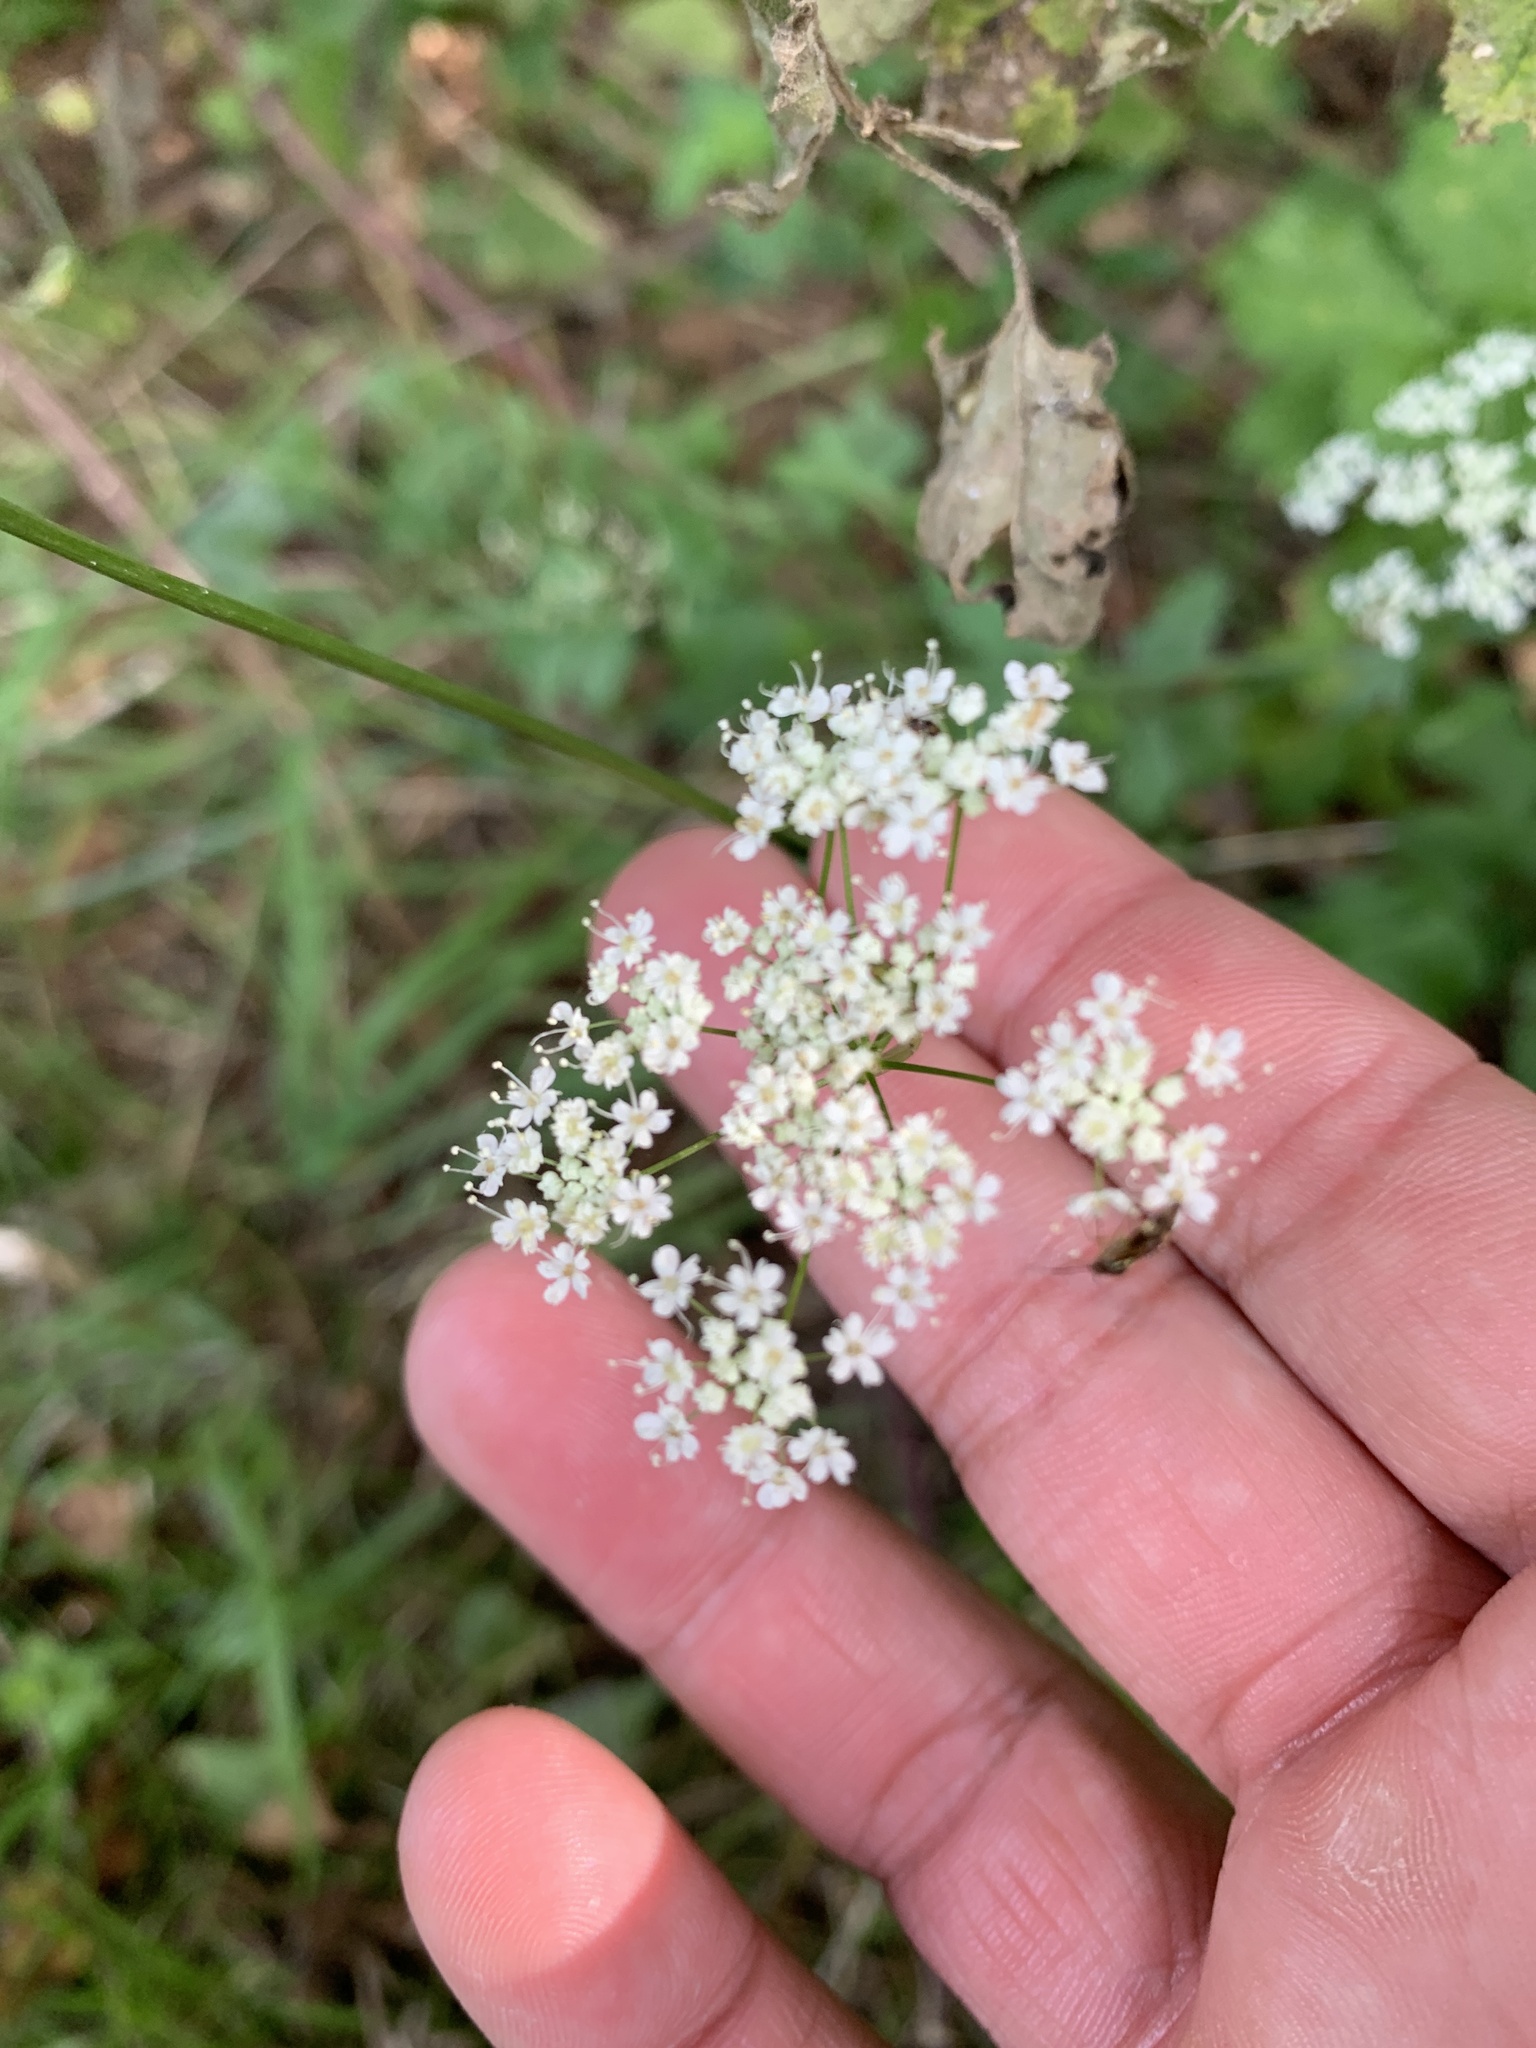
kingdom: Plantae
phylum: Tracheophyta
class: Magnoliopsida
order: Apiales
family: Apiaceae
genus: Conopodium
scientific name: Conopodium majus
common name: Pignut
